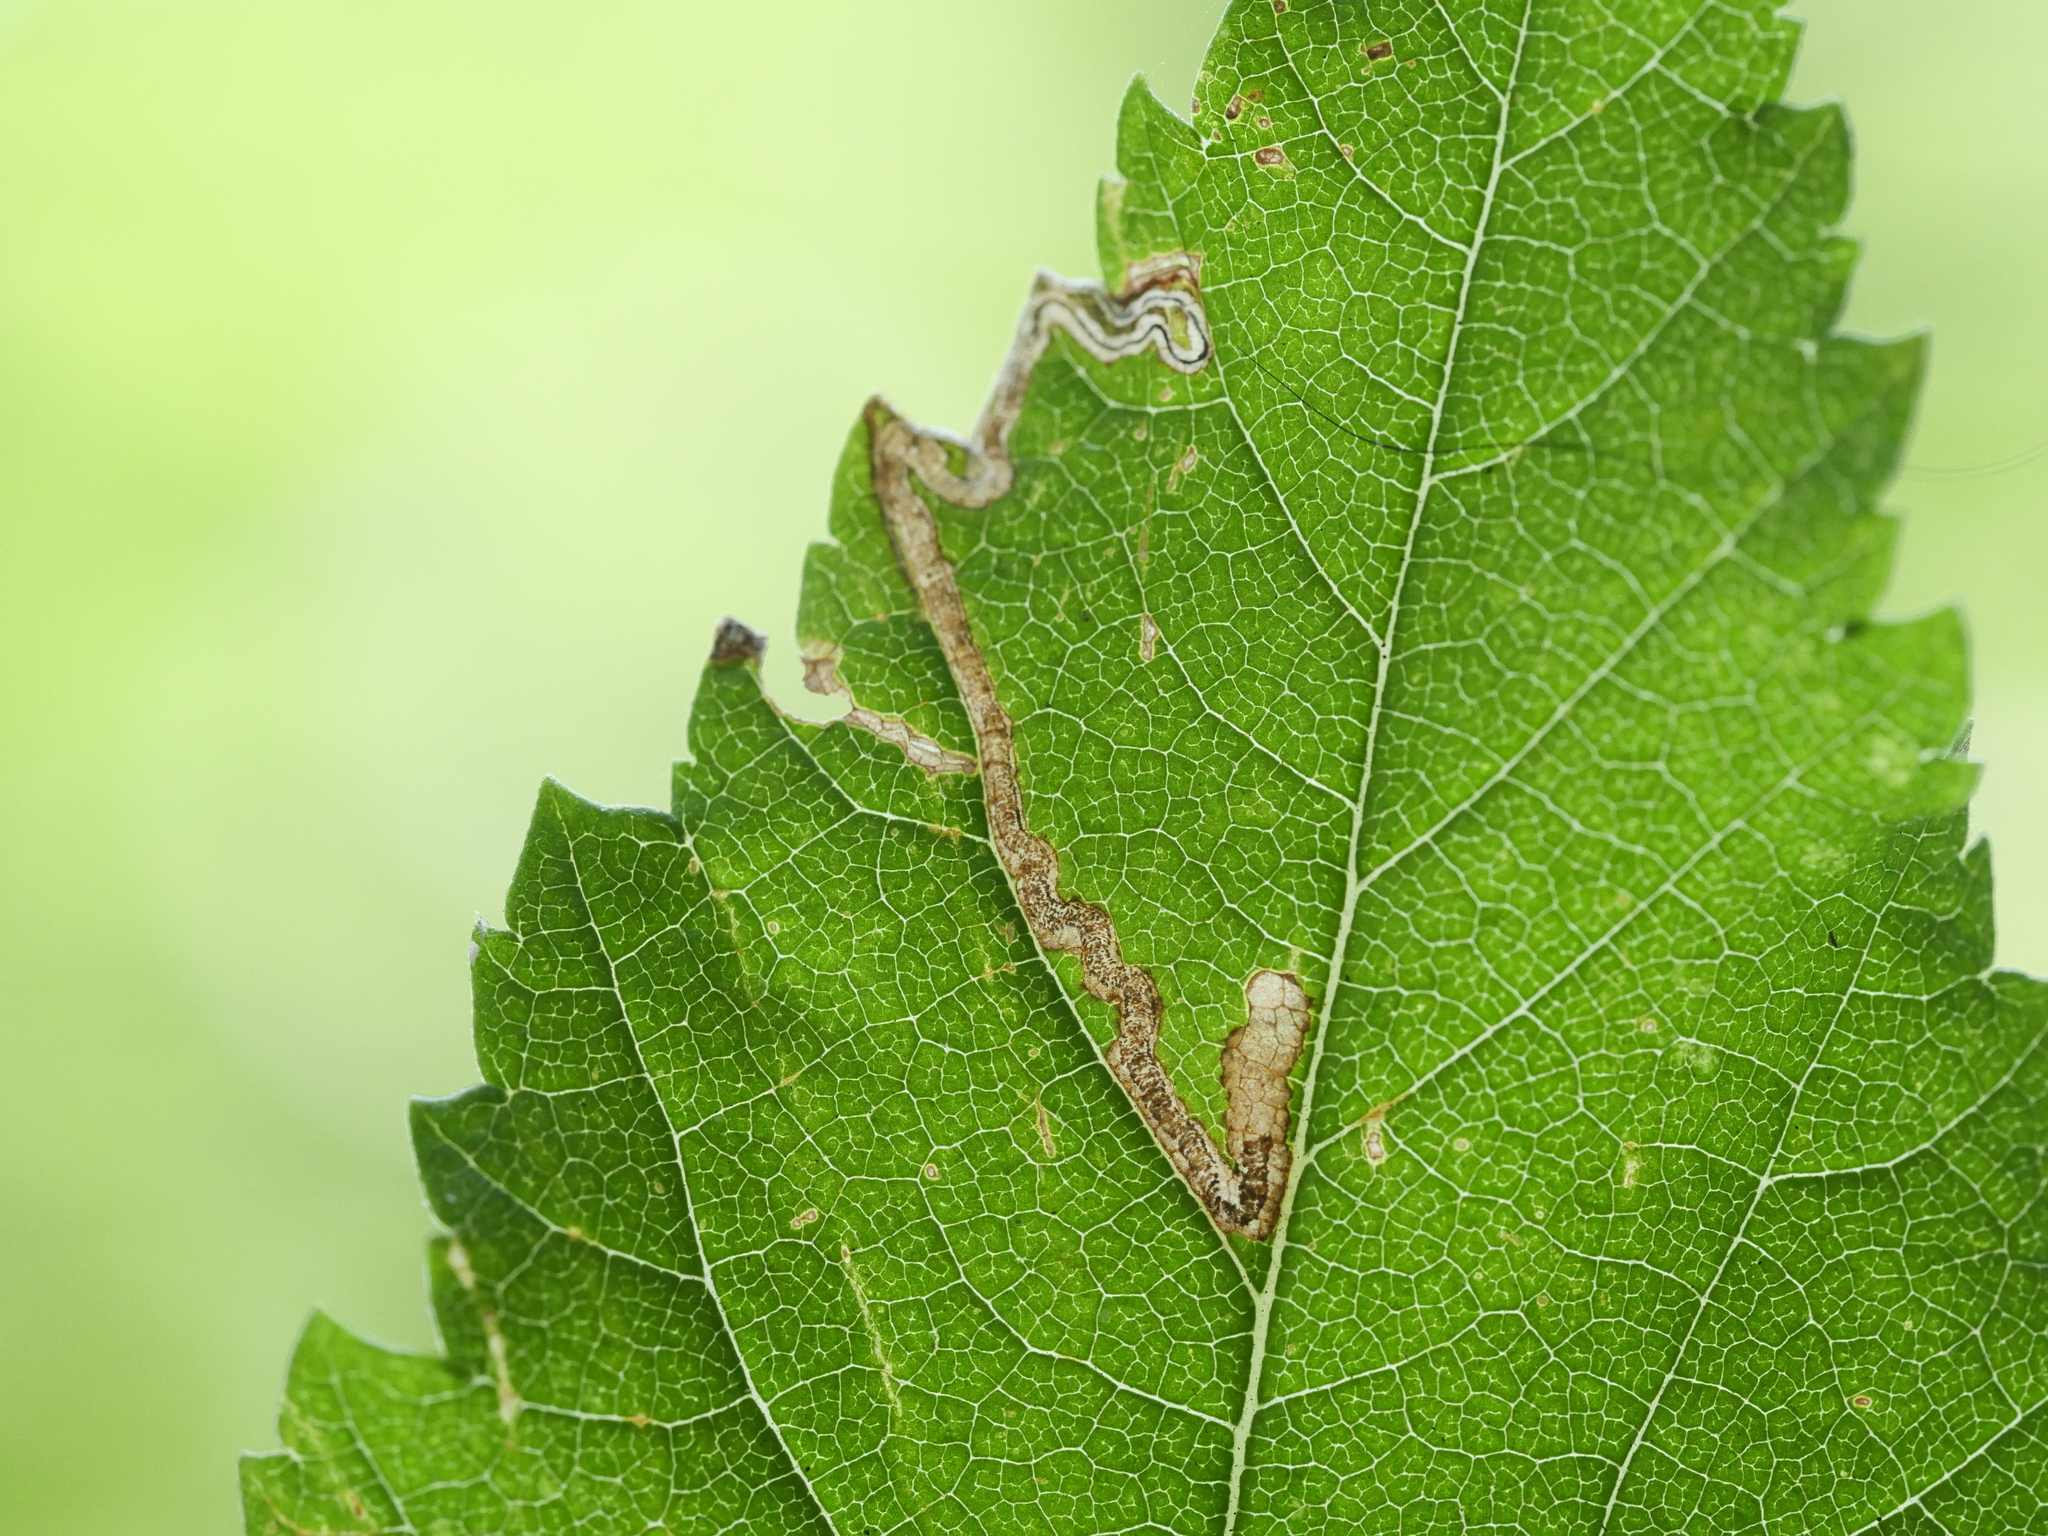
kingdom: Animalia
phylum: Arthropoda
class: Insecta
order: Lepidoptera
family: Nepticulidae
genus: Stigmella
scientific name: Stigmella ulmivora
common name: Barred elm pigmy
